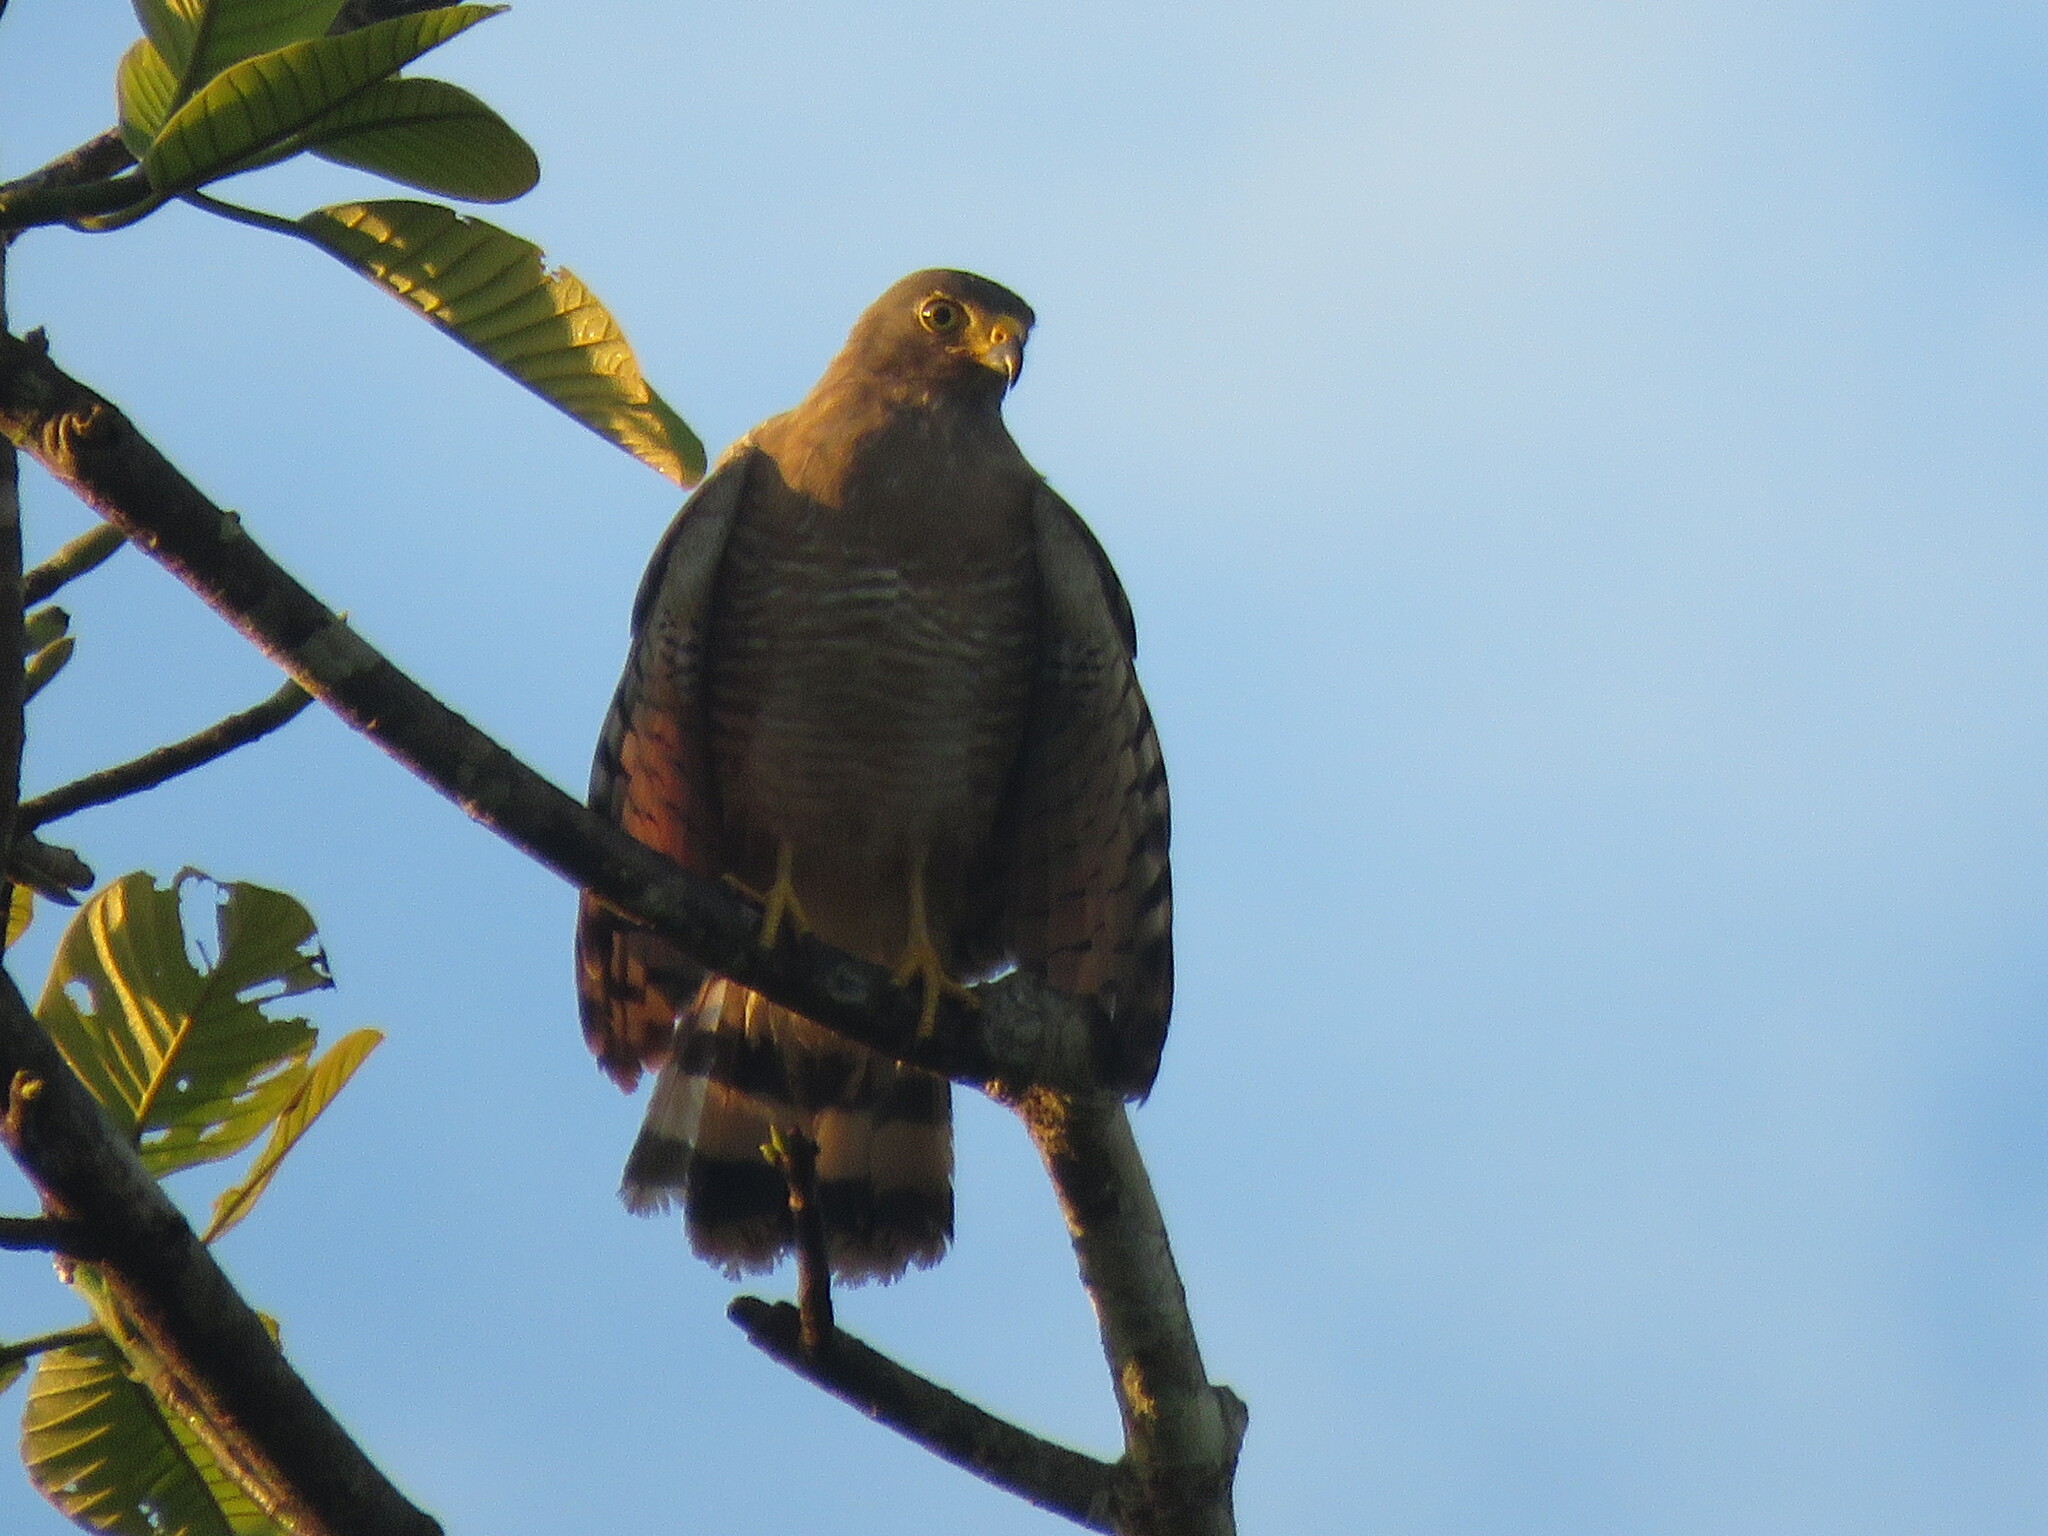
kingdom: Animalia
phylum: Chordata
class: Aves
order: Accipitriformes
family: Accipitridae
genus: Rupornis
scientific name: Rupornis magnirostris
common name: Roadside hawk
